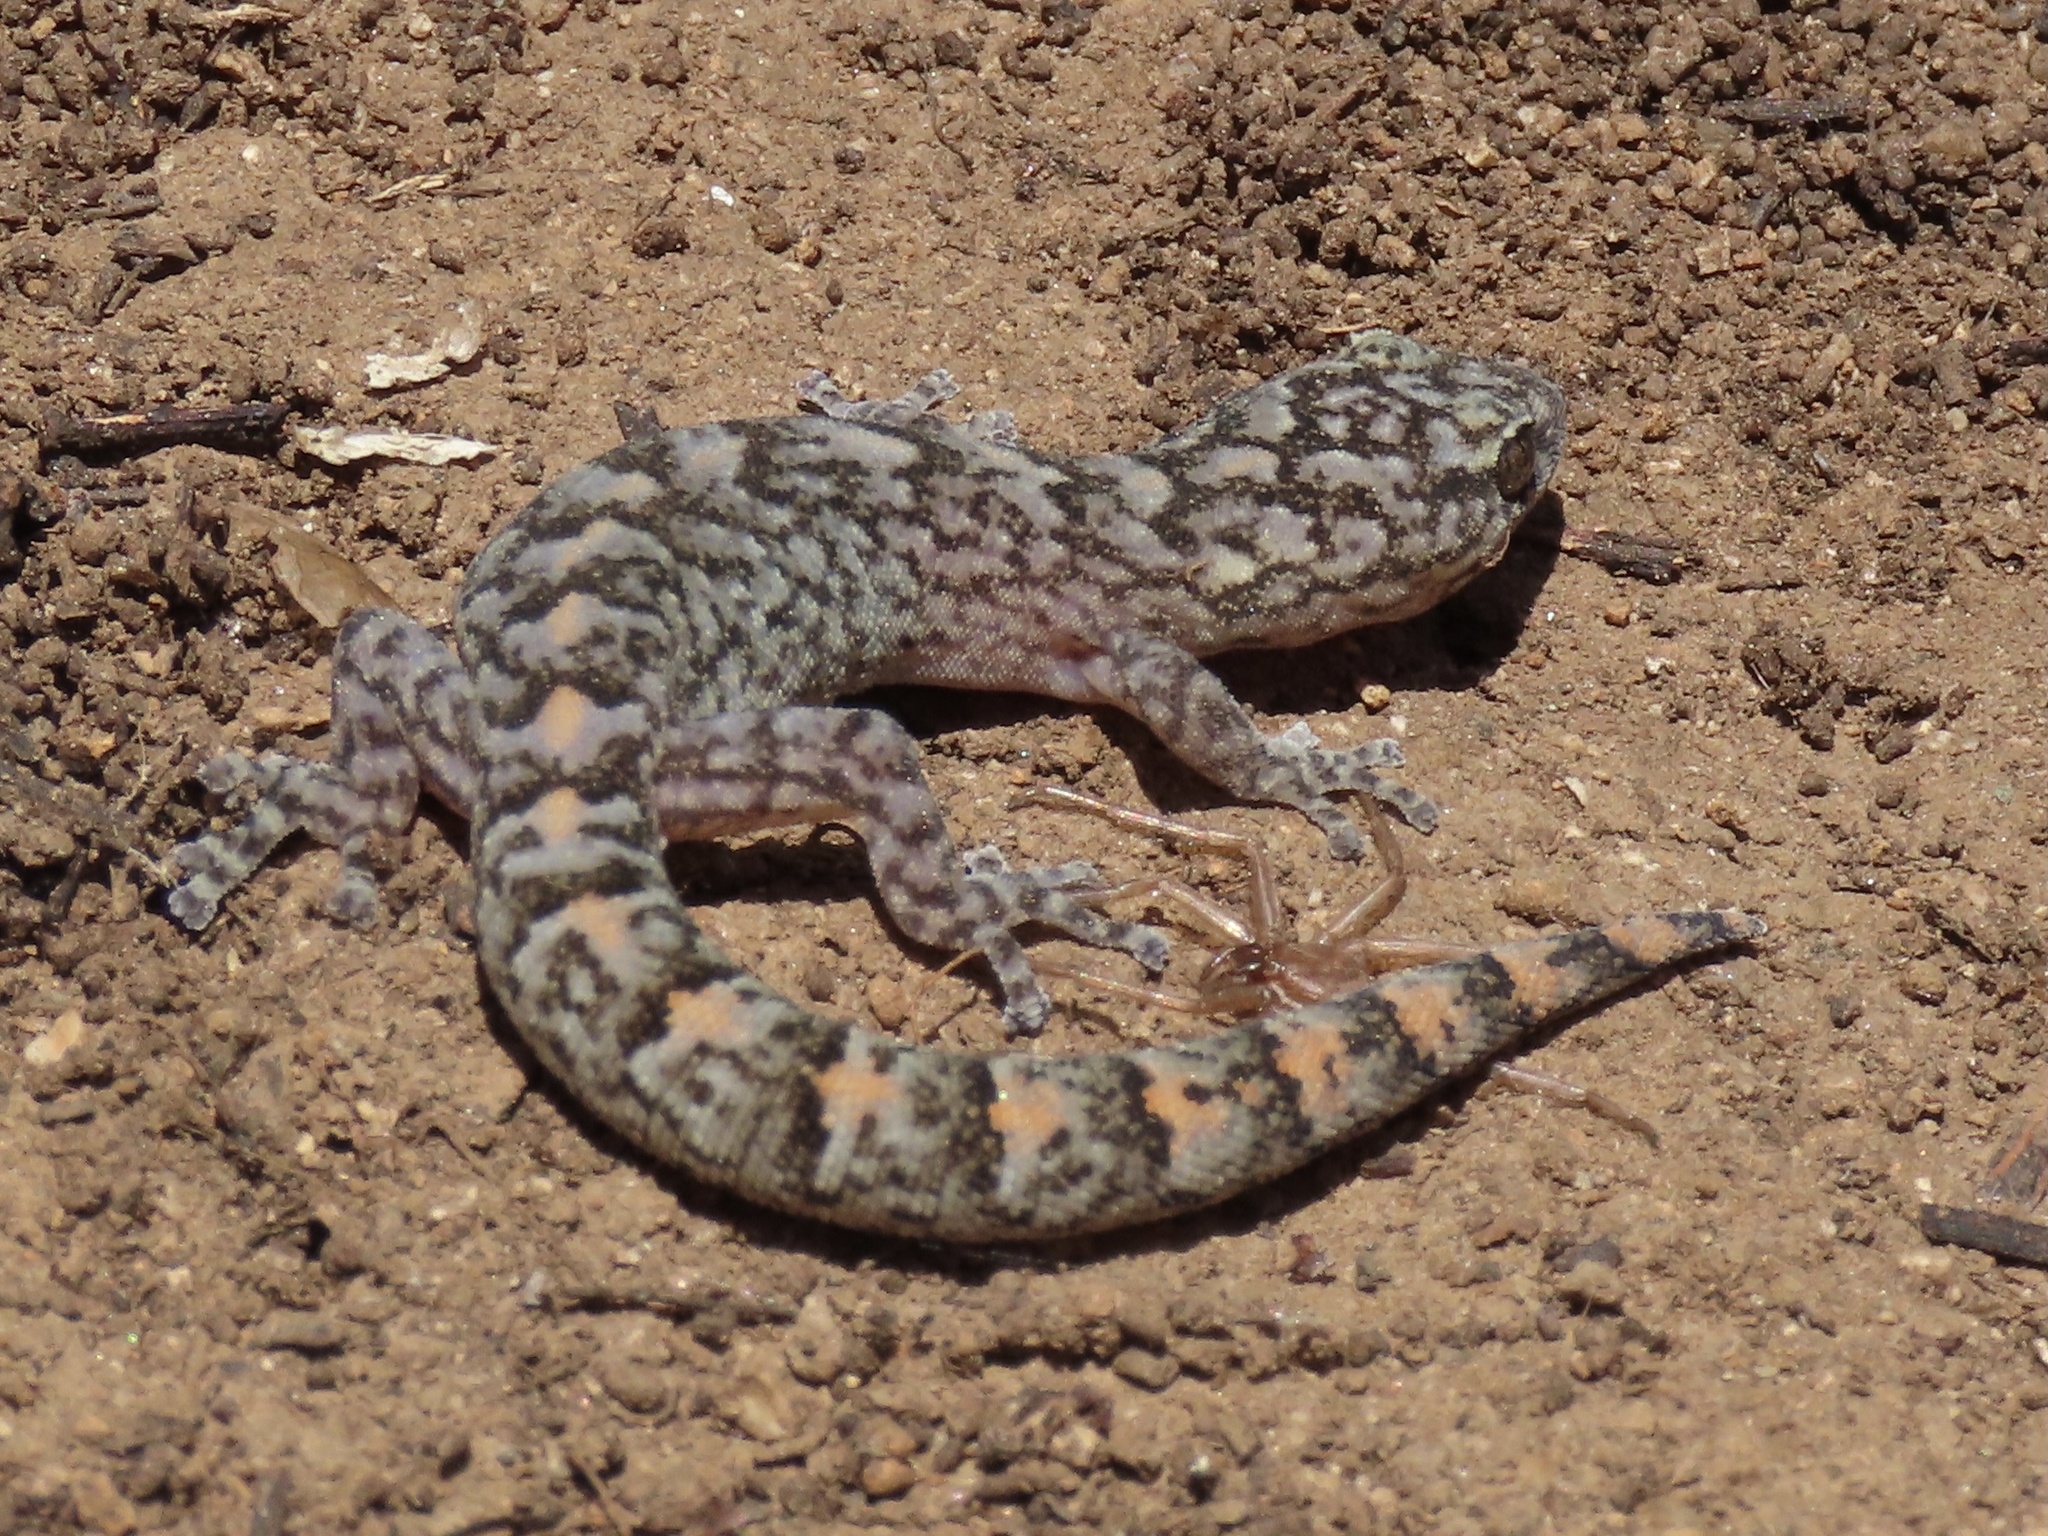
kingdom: Animalia
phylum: Chordata
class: Squamata
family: Gekkonidae
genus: Christinus
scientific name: Christinus marmoratus
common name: Marbled gecko
